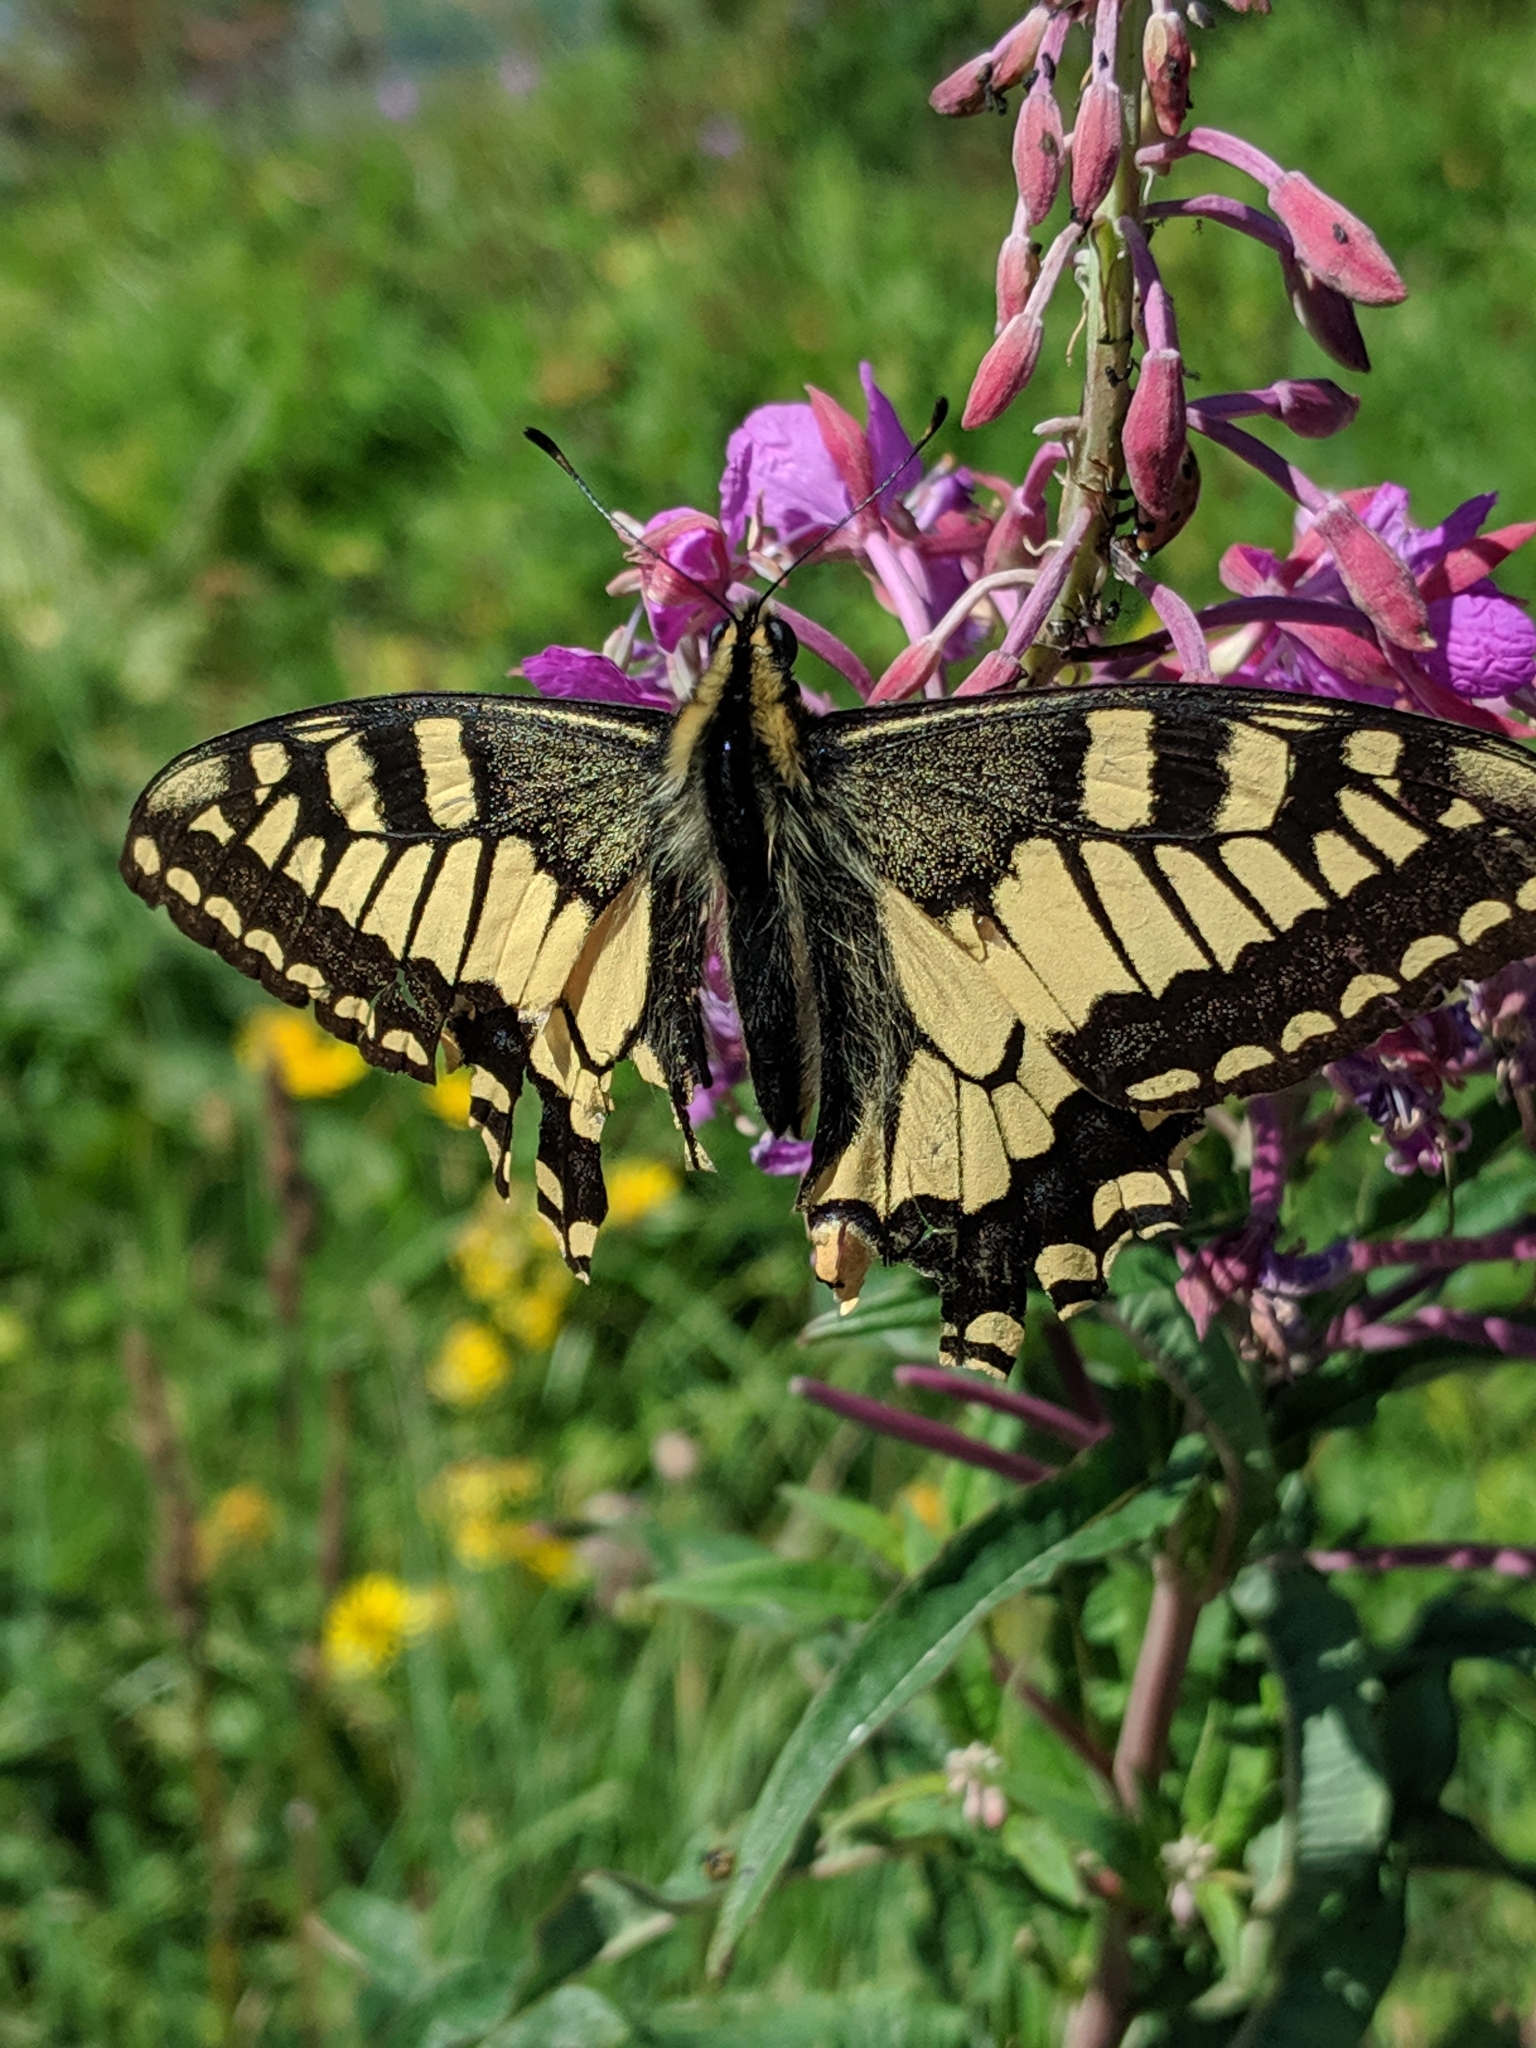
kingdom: Animalia
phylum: Arthropoda
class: Insecta
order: Lepidoptera
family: Papilionidae
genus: Papilio
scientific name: Papilio machaon
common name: Swallowtail
